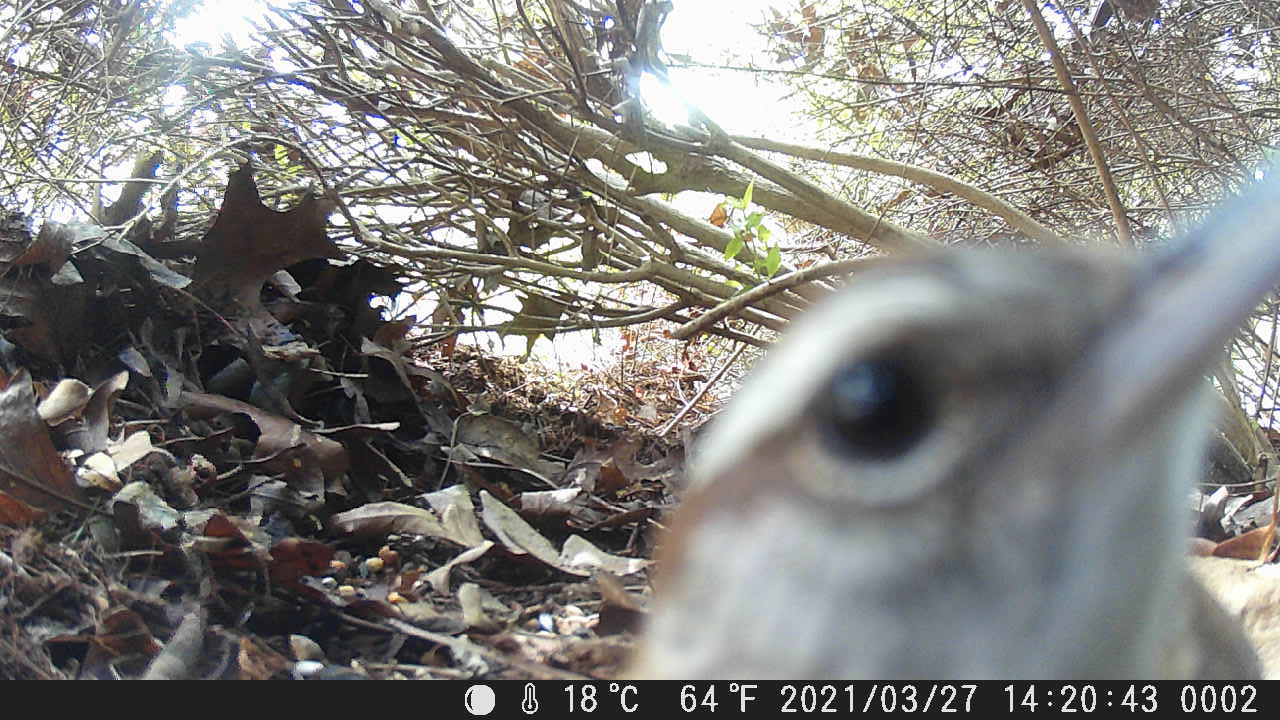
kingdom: Animalia
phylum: Chordata
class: Aves
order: Passeriformes
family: Troglodytidae
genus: Thryothorus
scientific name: Thryothorus ludovicianus
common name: Carolina wren
